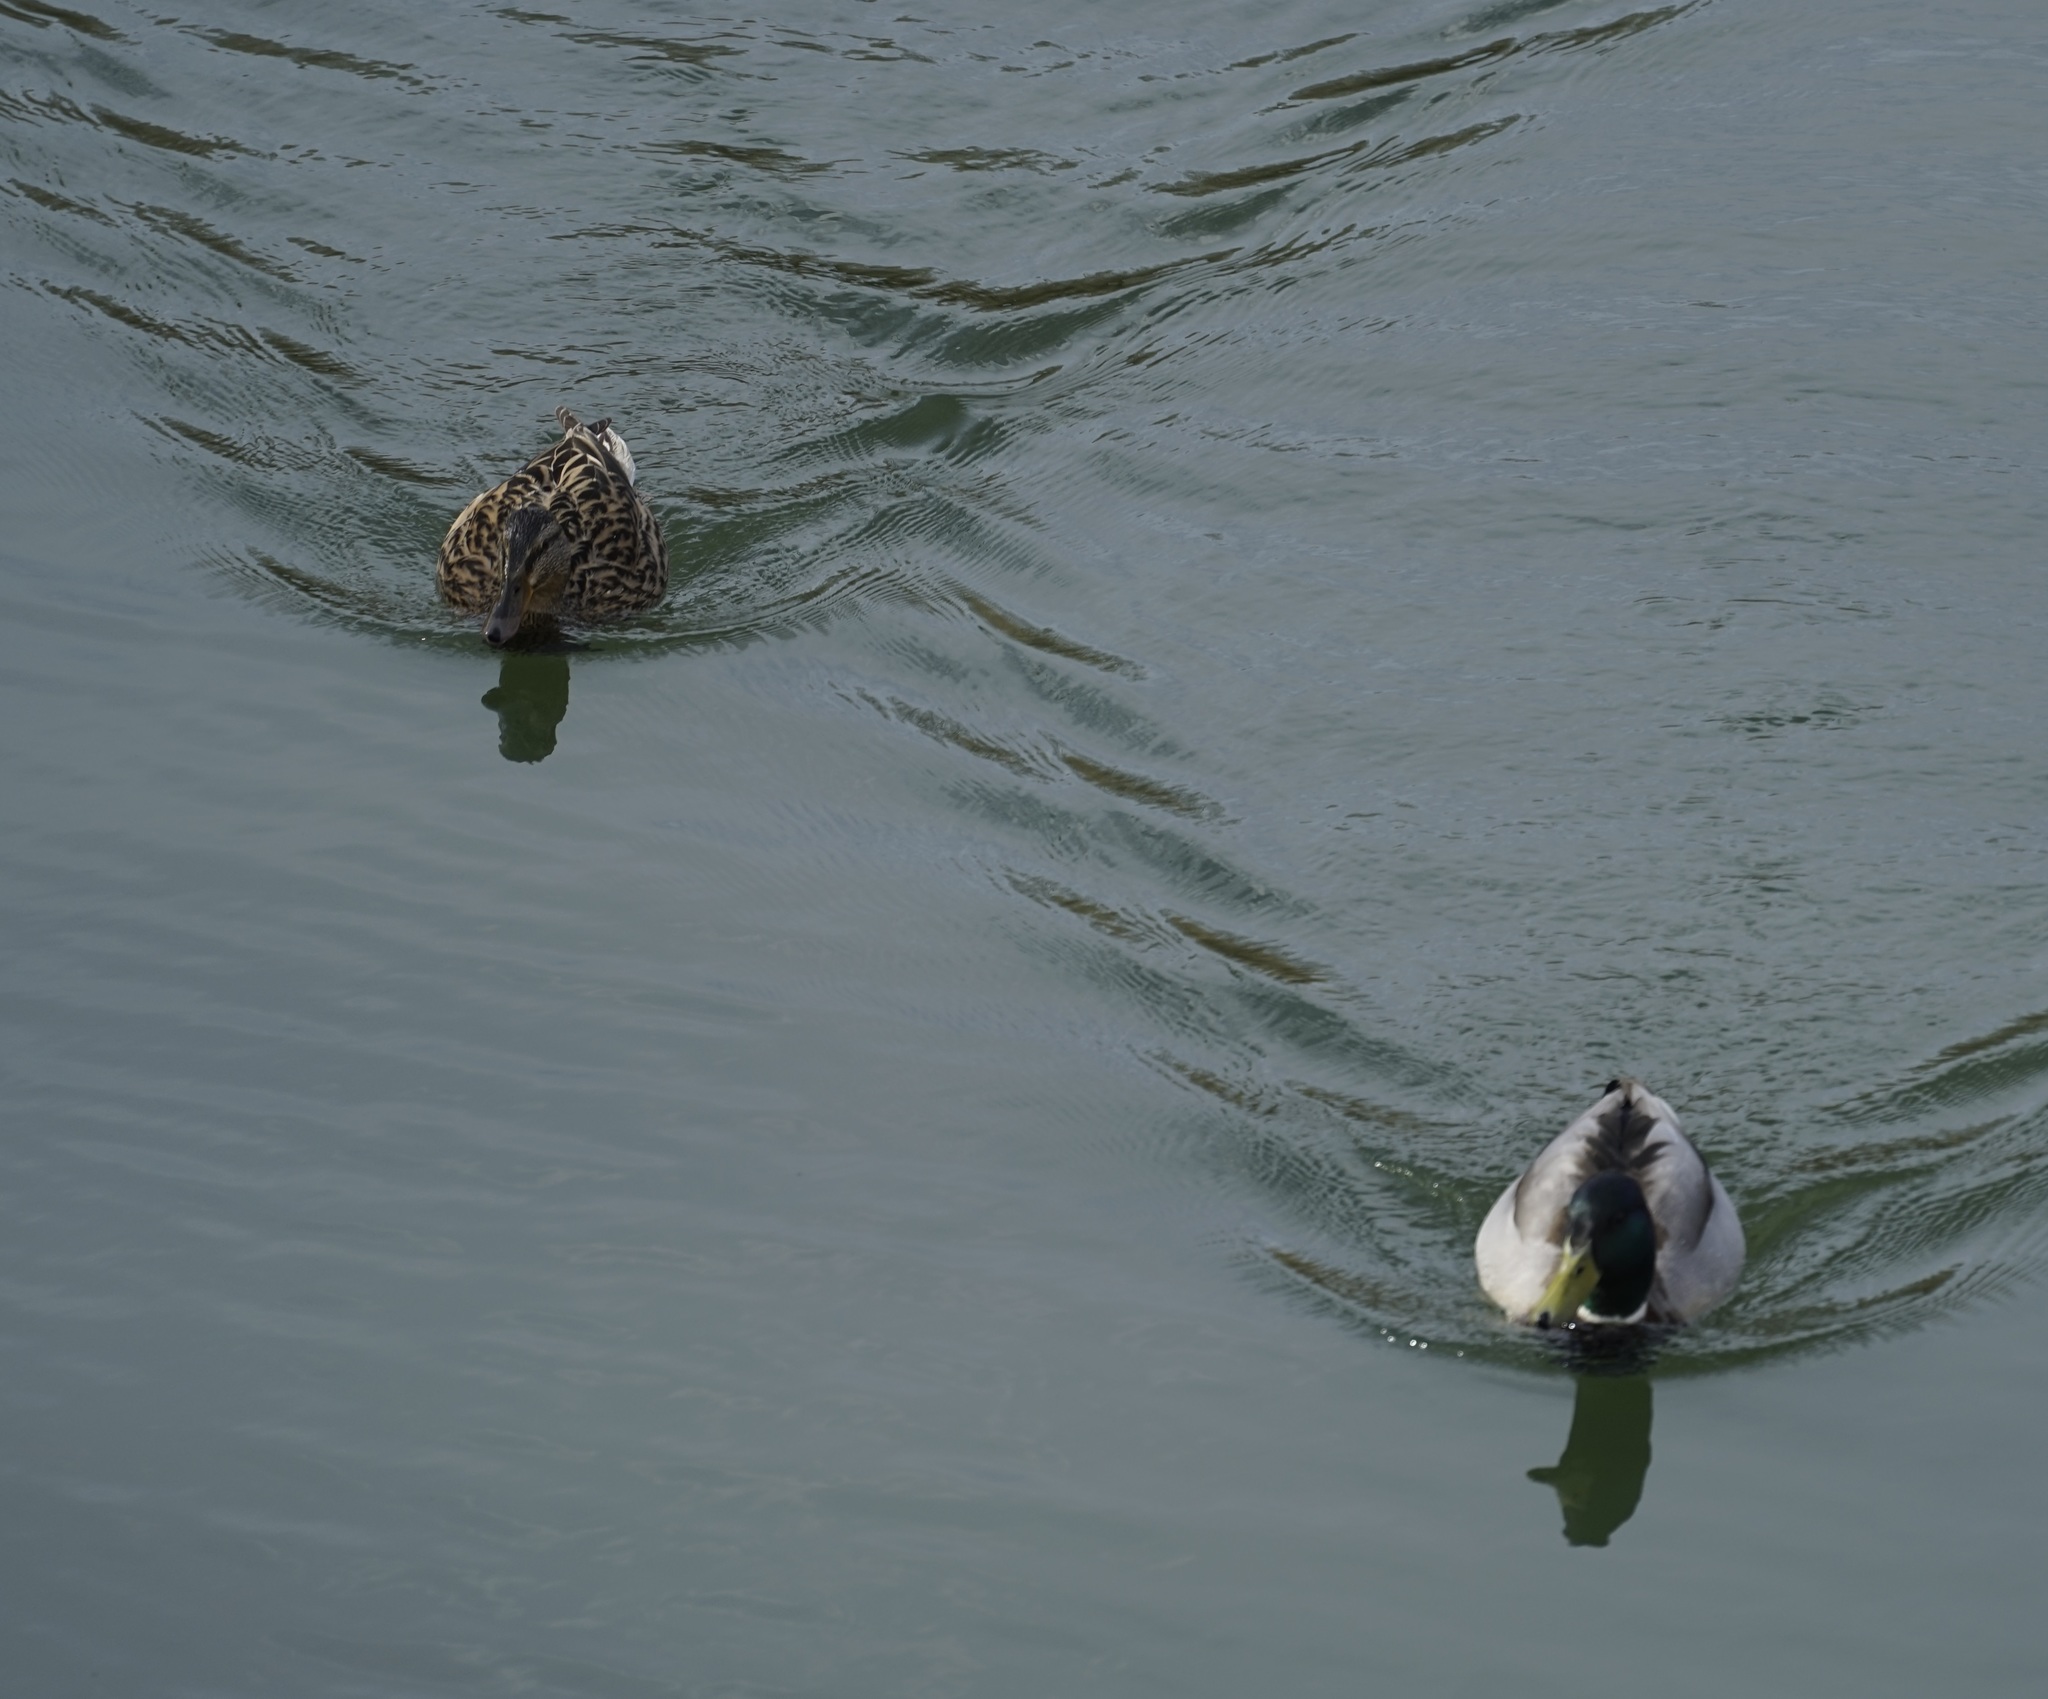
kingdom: Animalia
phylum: Chordata
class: Aves
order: Anseriformes
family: Anatidae
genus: Anas
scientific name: Anas platyrhynchos
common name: Mallard
